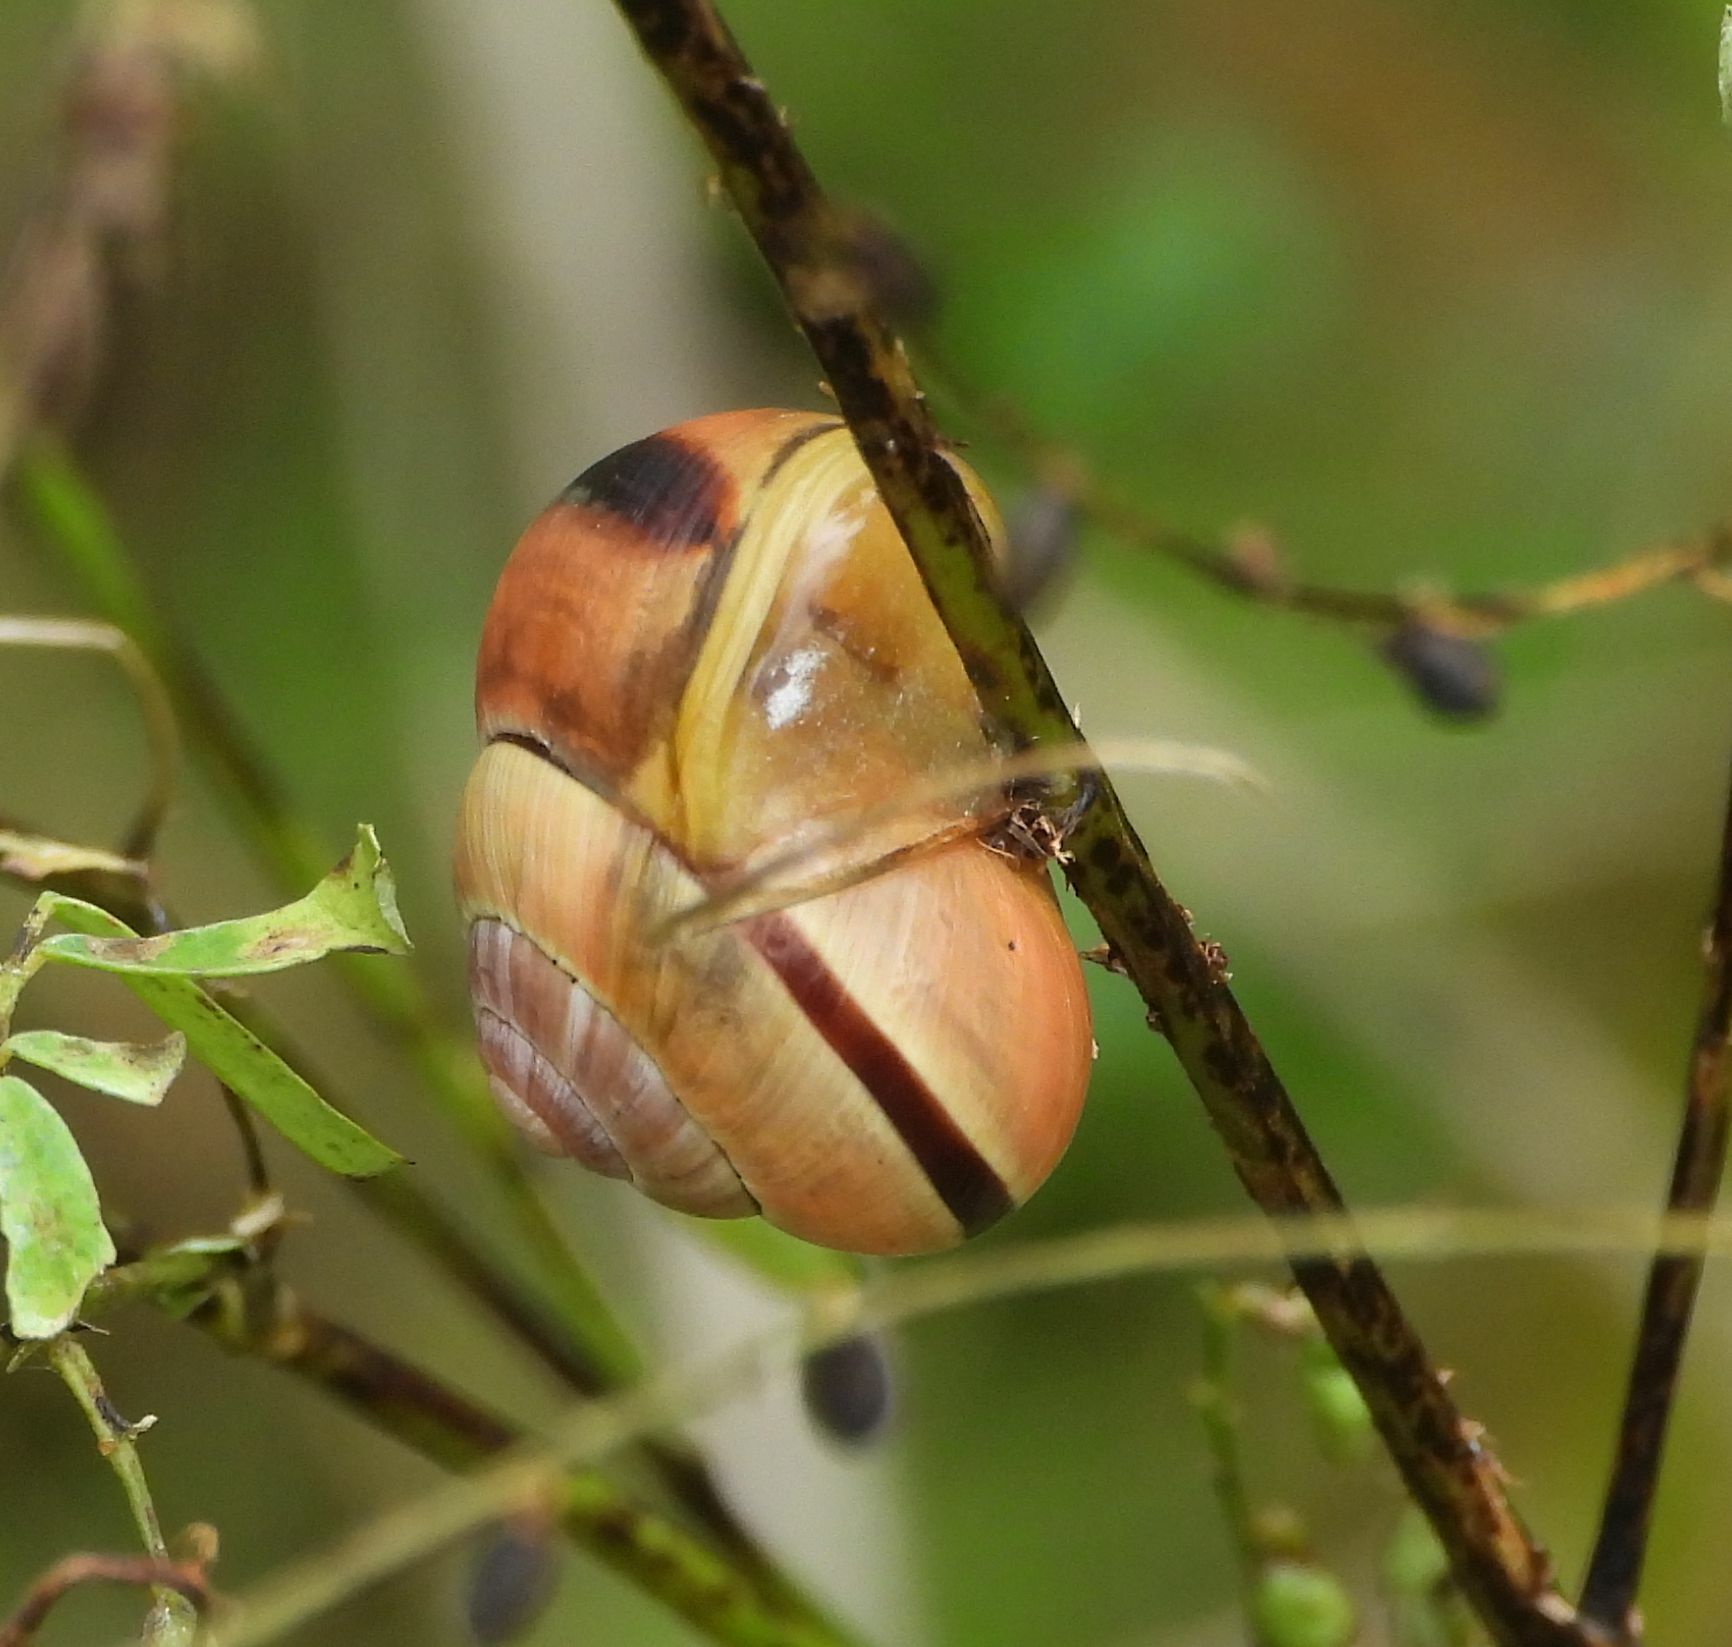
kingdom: Animalia
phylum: Mollusca
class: Gastropoda
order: Stylommatophora
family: Helicidae
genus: Cepaea
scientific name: Cepaea nemoralis
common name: Grovesnail
